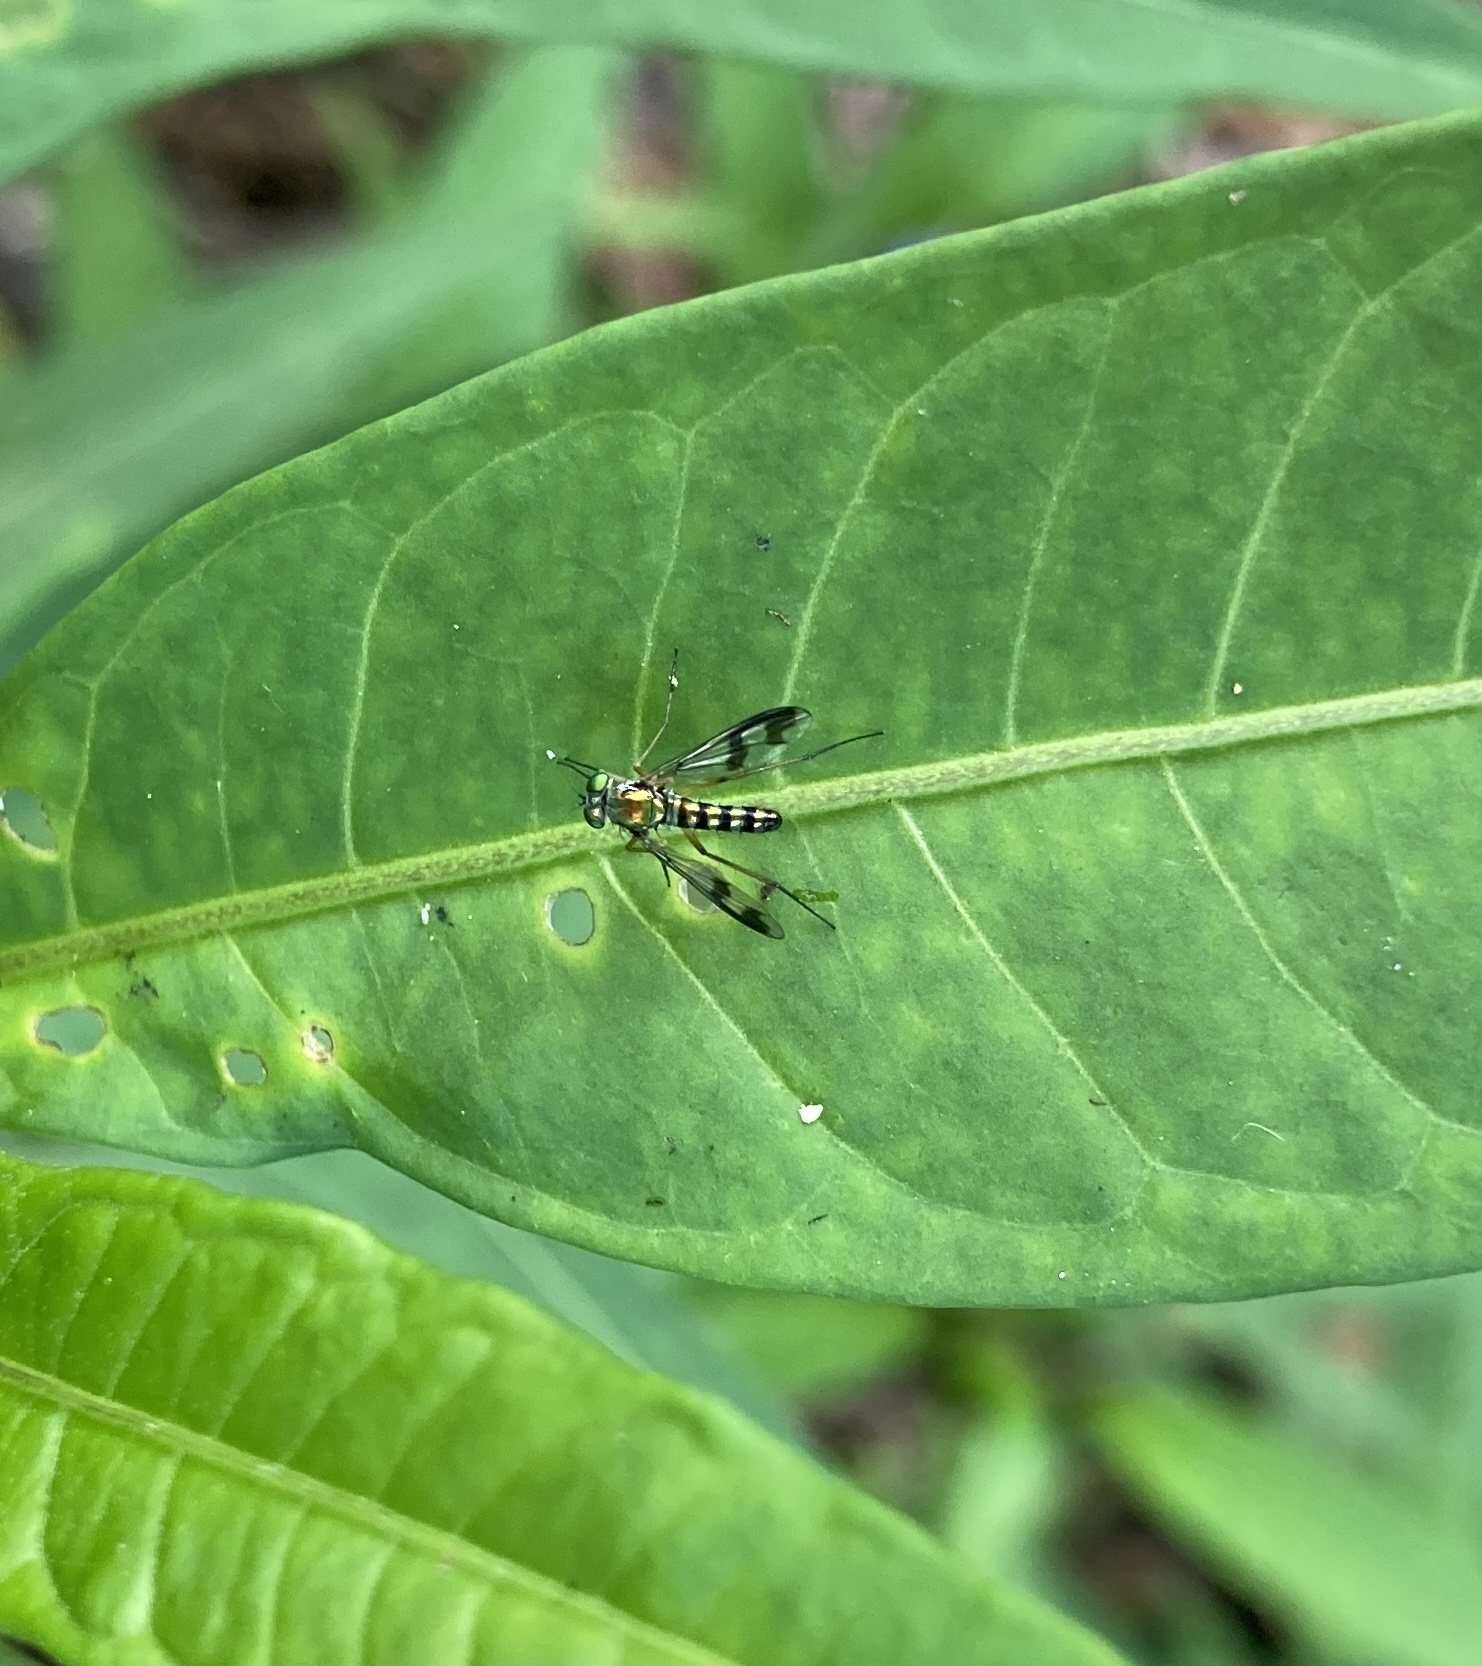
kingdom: Animalia
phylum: Arthropoda
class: Insecta
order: Diptera
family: Dolichopodidae
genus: Austrosciapus
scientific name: Austrosciapus proximus
